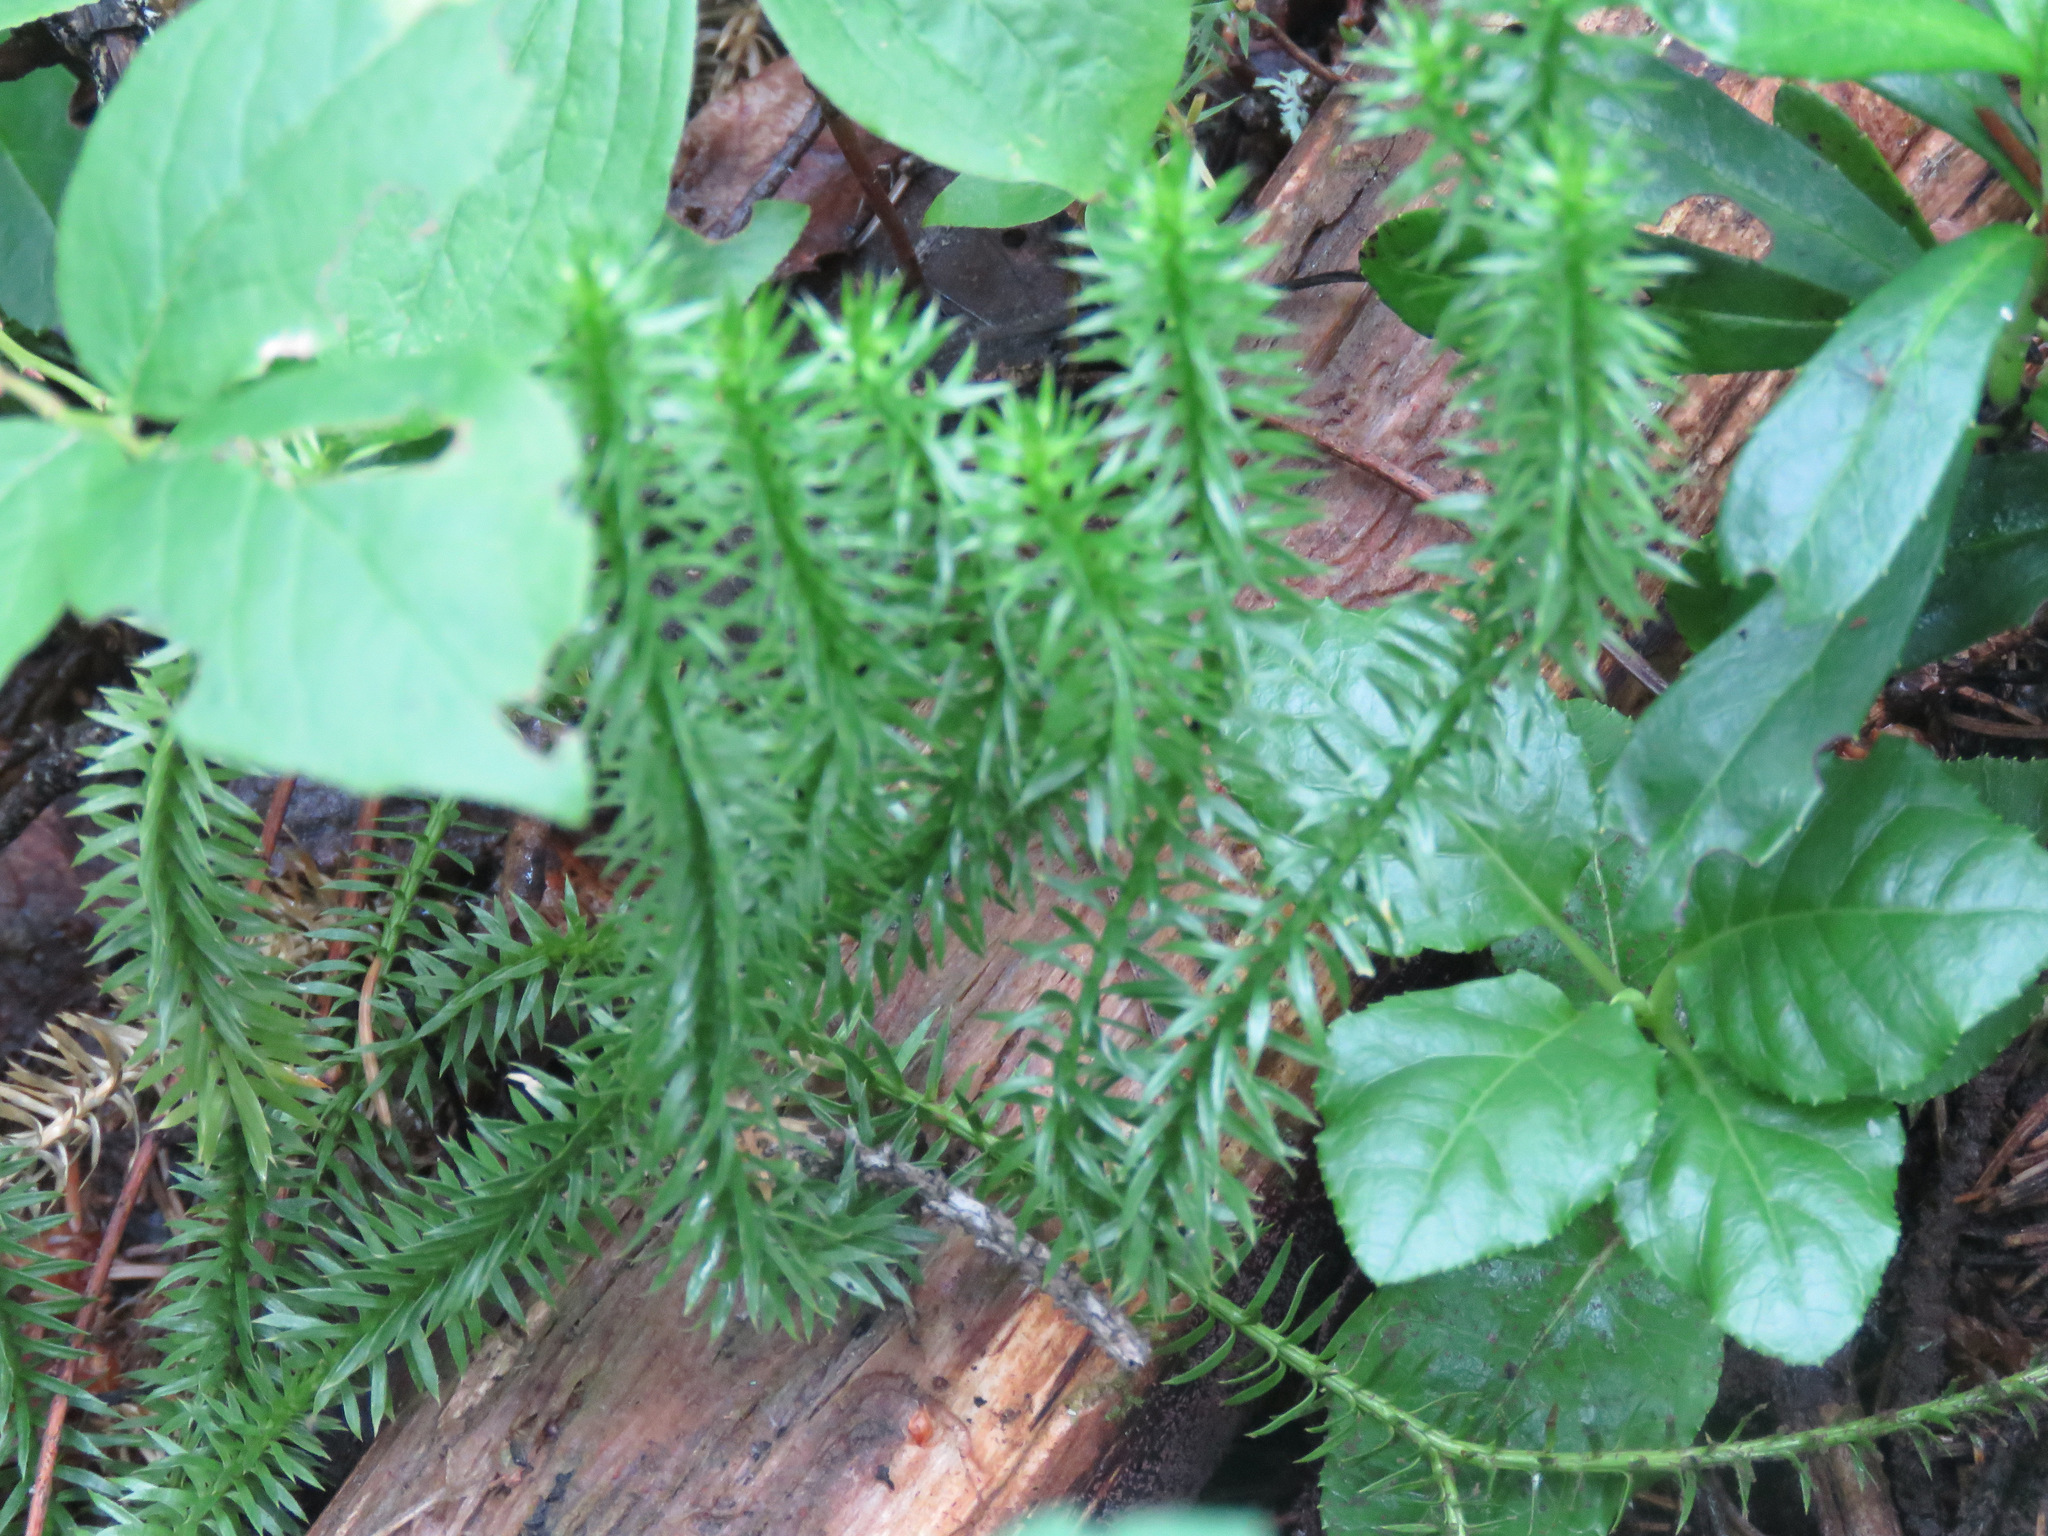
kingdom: Plantae
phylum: Tracheophyta
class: Lycopodiopsida
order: Lycopodiales
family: Lycopodiaceae
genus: Spinulum
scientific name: Spinulum annotinum
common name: Interrupted club-moss
